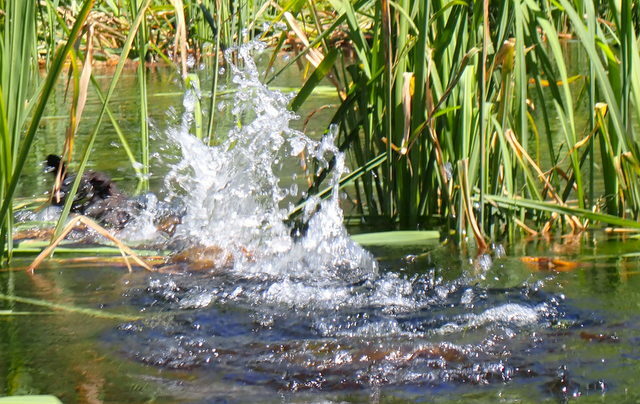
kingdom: Animalia
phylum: Chordata
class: Aves
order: Gruiformes
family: Rallidae
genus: Fulica
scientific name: Fulica americana
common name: American coot
